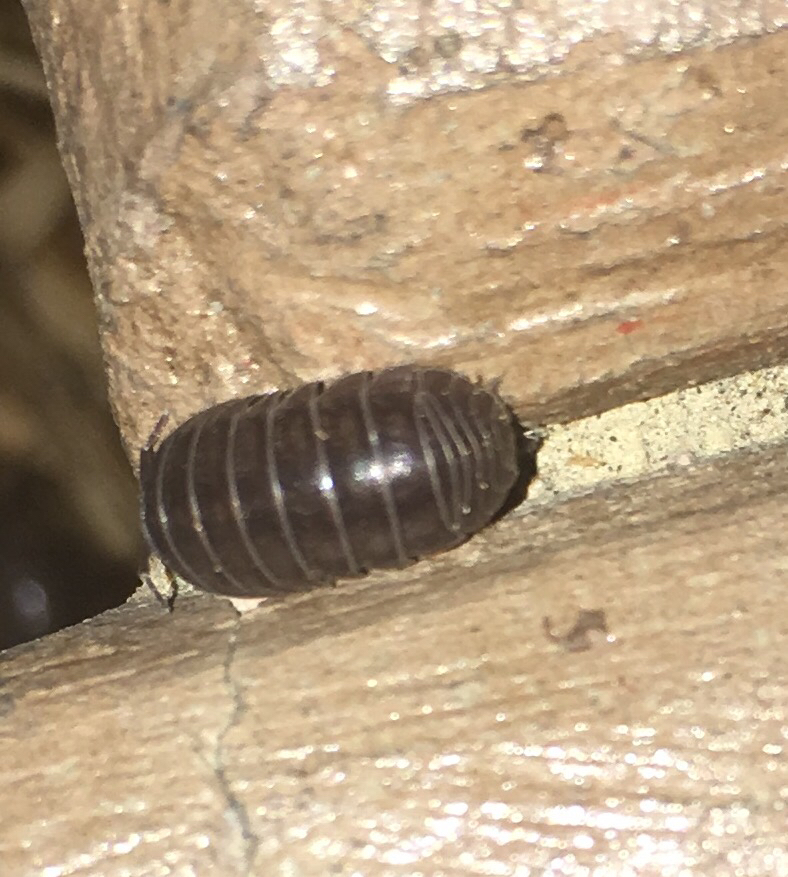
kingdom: Animalia
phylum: Arthropoda
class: Malacostraca
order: Isopoda
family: Armadillidiidae
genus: Armadillidium
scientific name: Armadillidium vulgare
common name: Common pill woodlouse
